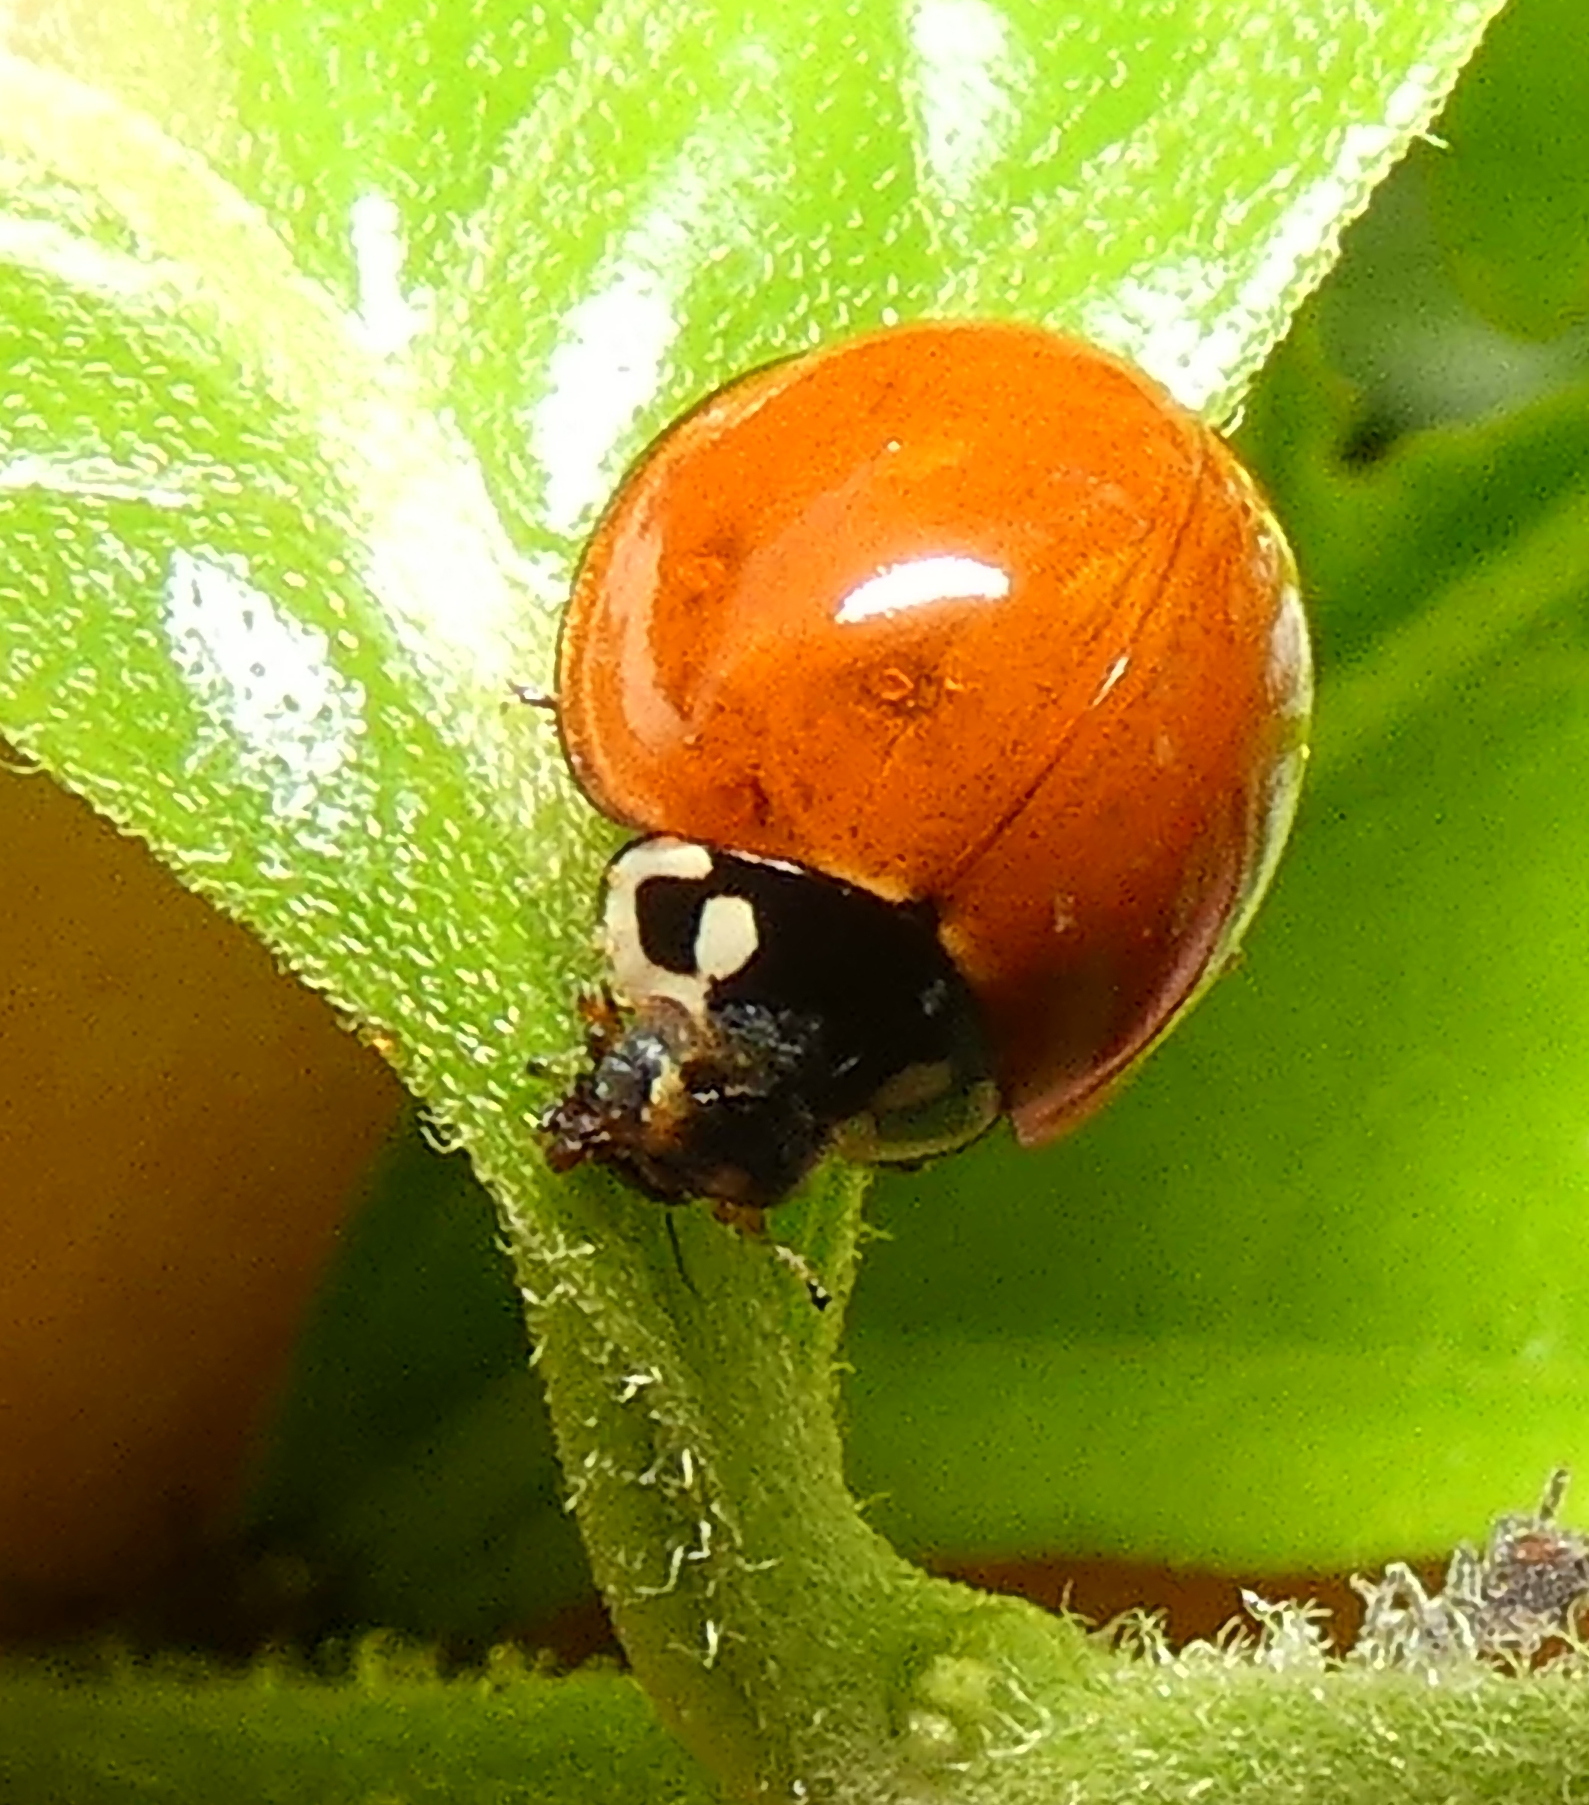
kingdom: Animalia
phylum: Arthropoda
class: Insecta
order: Coleoptera
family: Coccinellidae
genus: Cycloneda
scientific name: Cycloneda sanguinea
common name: Ladybird beetle
